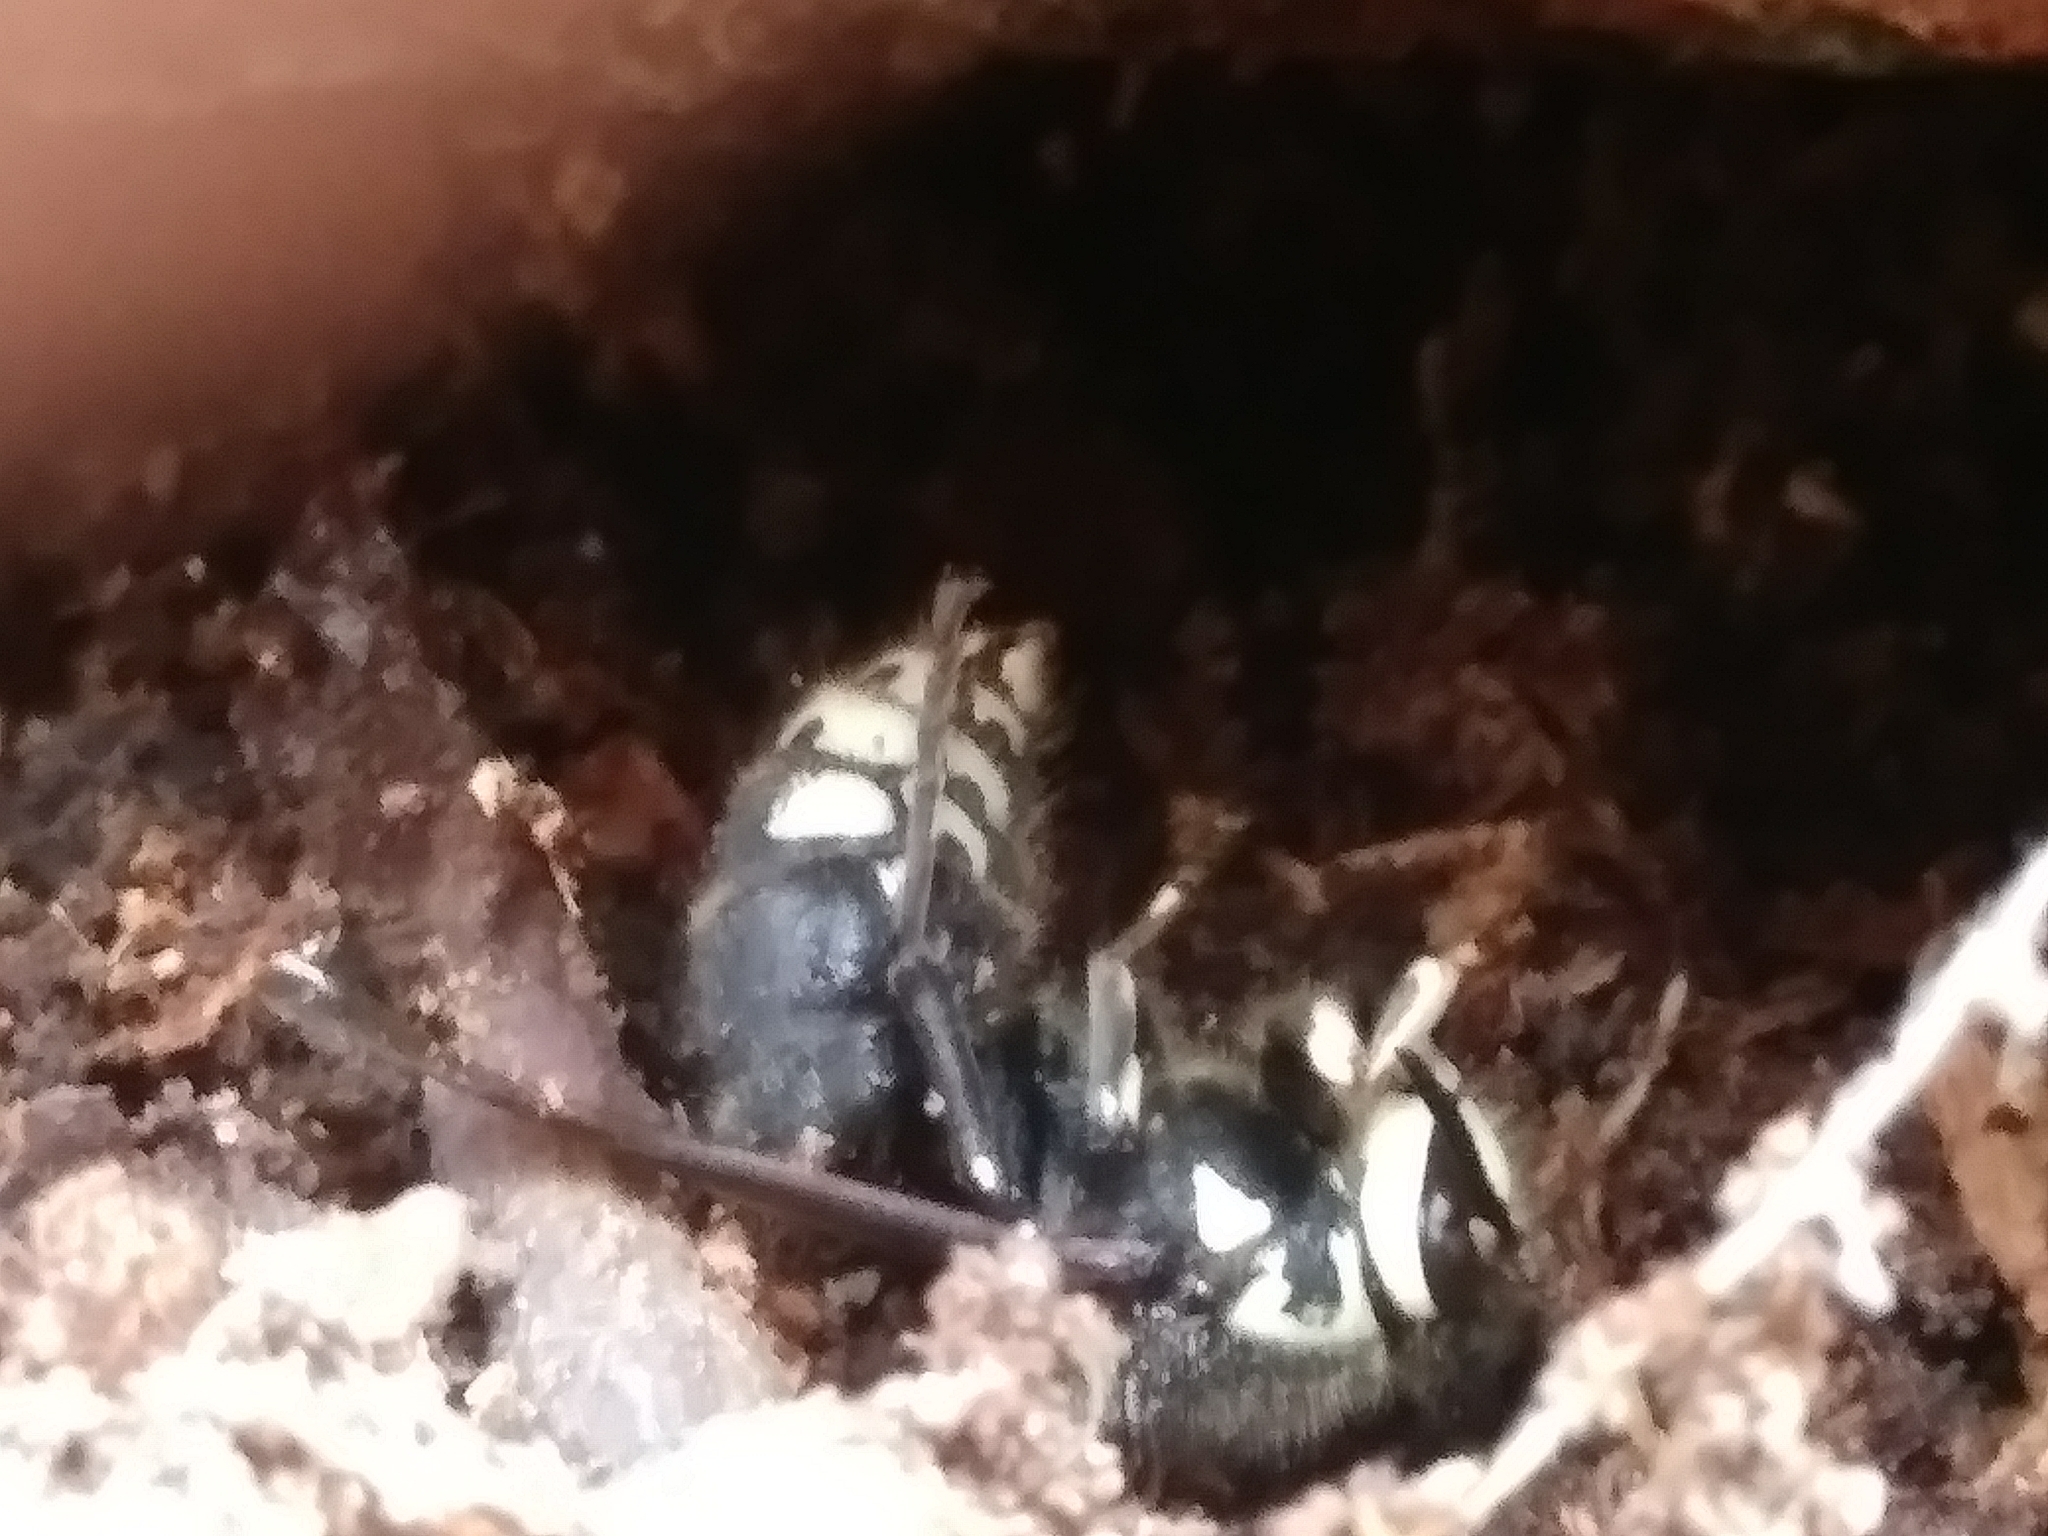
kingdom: Animalia
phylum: Arthropoda
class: Insecta
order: Hymenoptera
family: Vespidae
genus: Dolichovespula
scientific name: Dolichovespula maculata
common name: Bald-faced hornet
